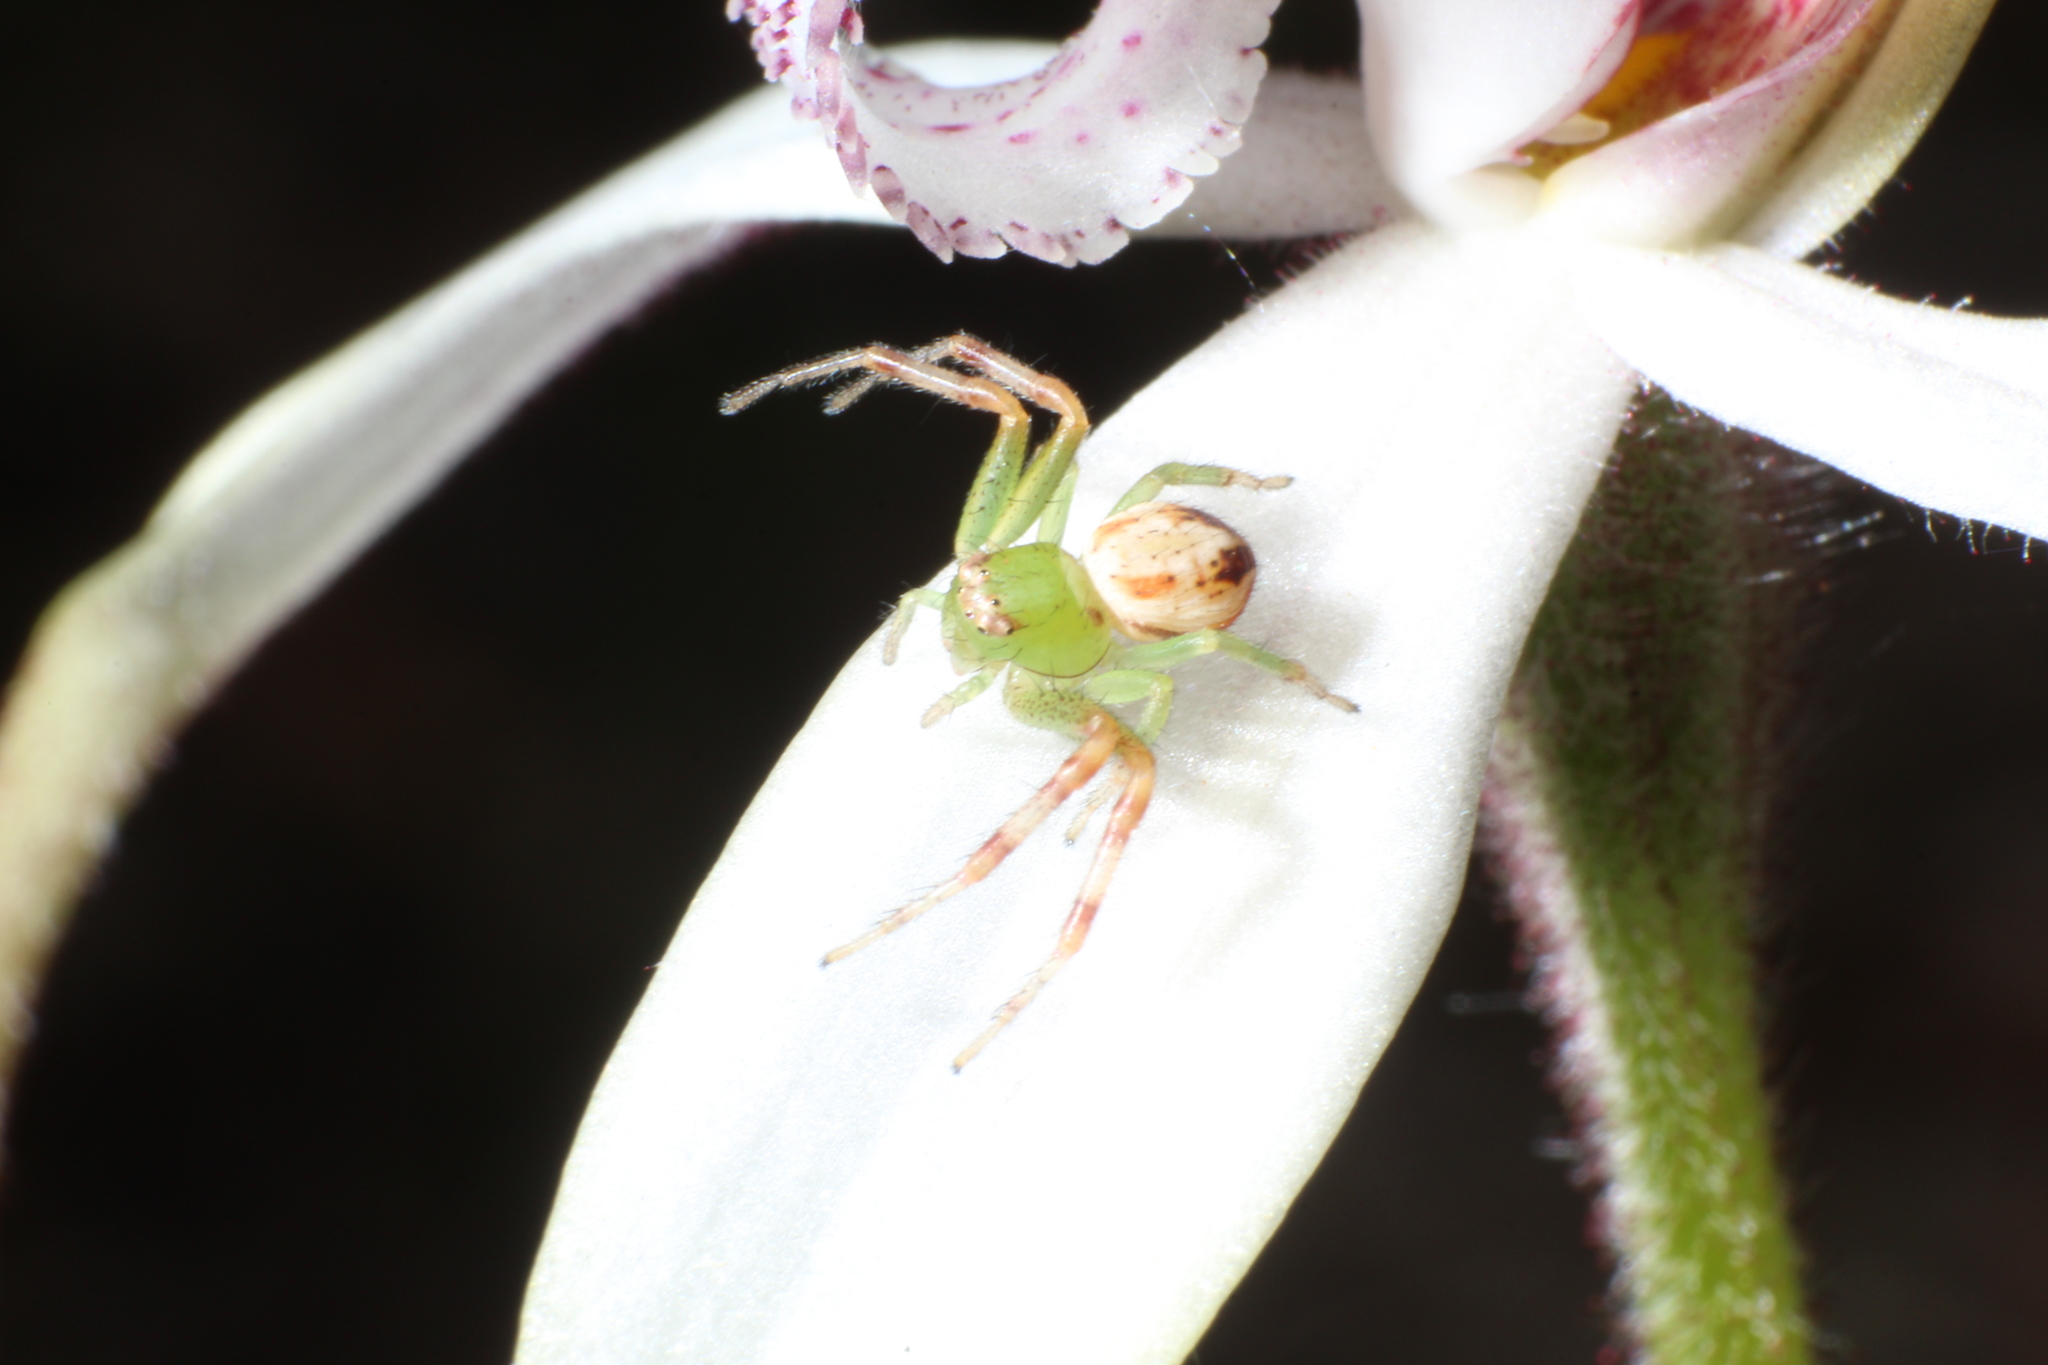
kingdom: Animalia
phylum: Arthropoda
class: Arachnida
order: Araneae
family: Thomisidae
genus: Australomisidia
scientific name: Australomisidia pilula
